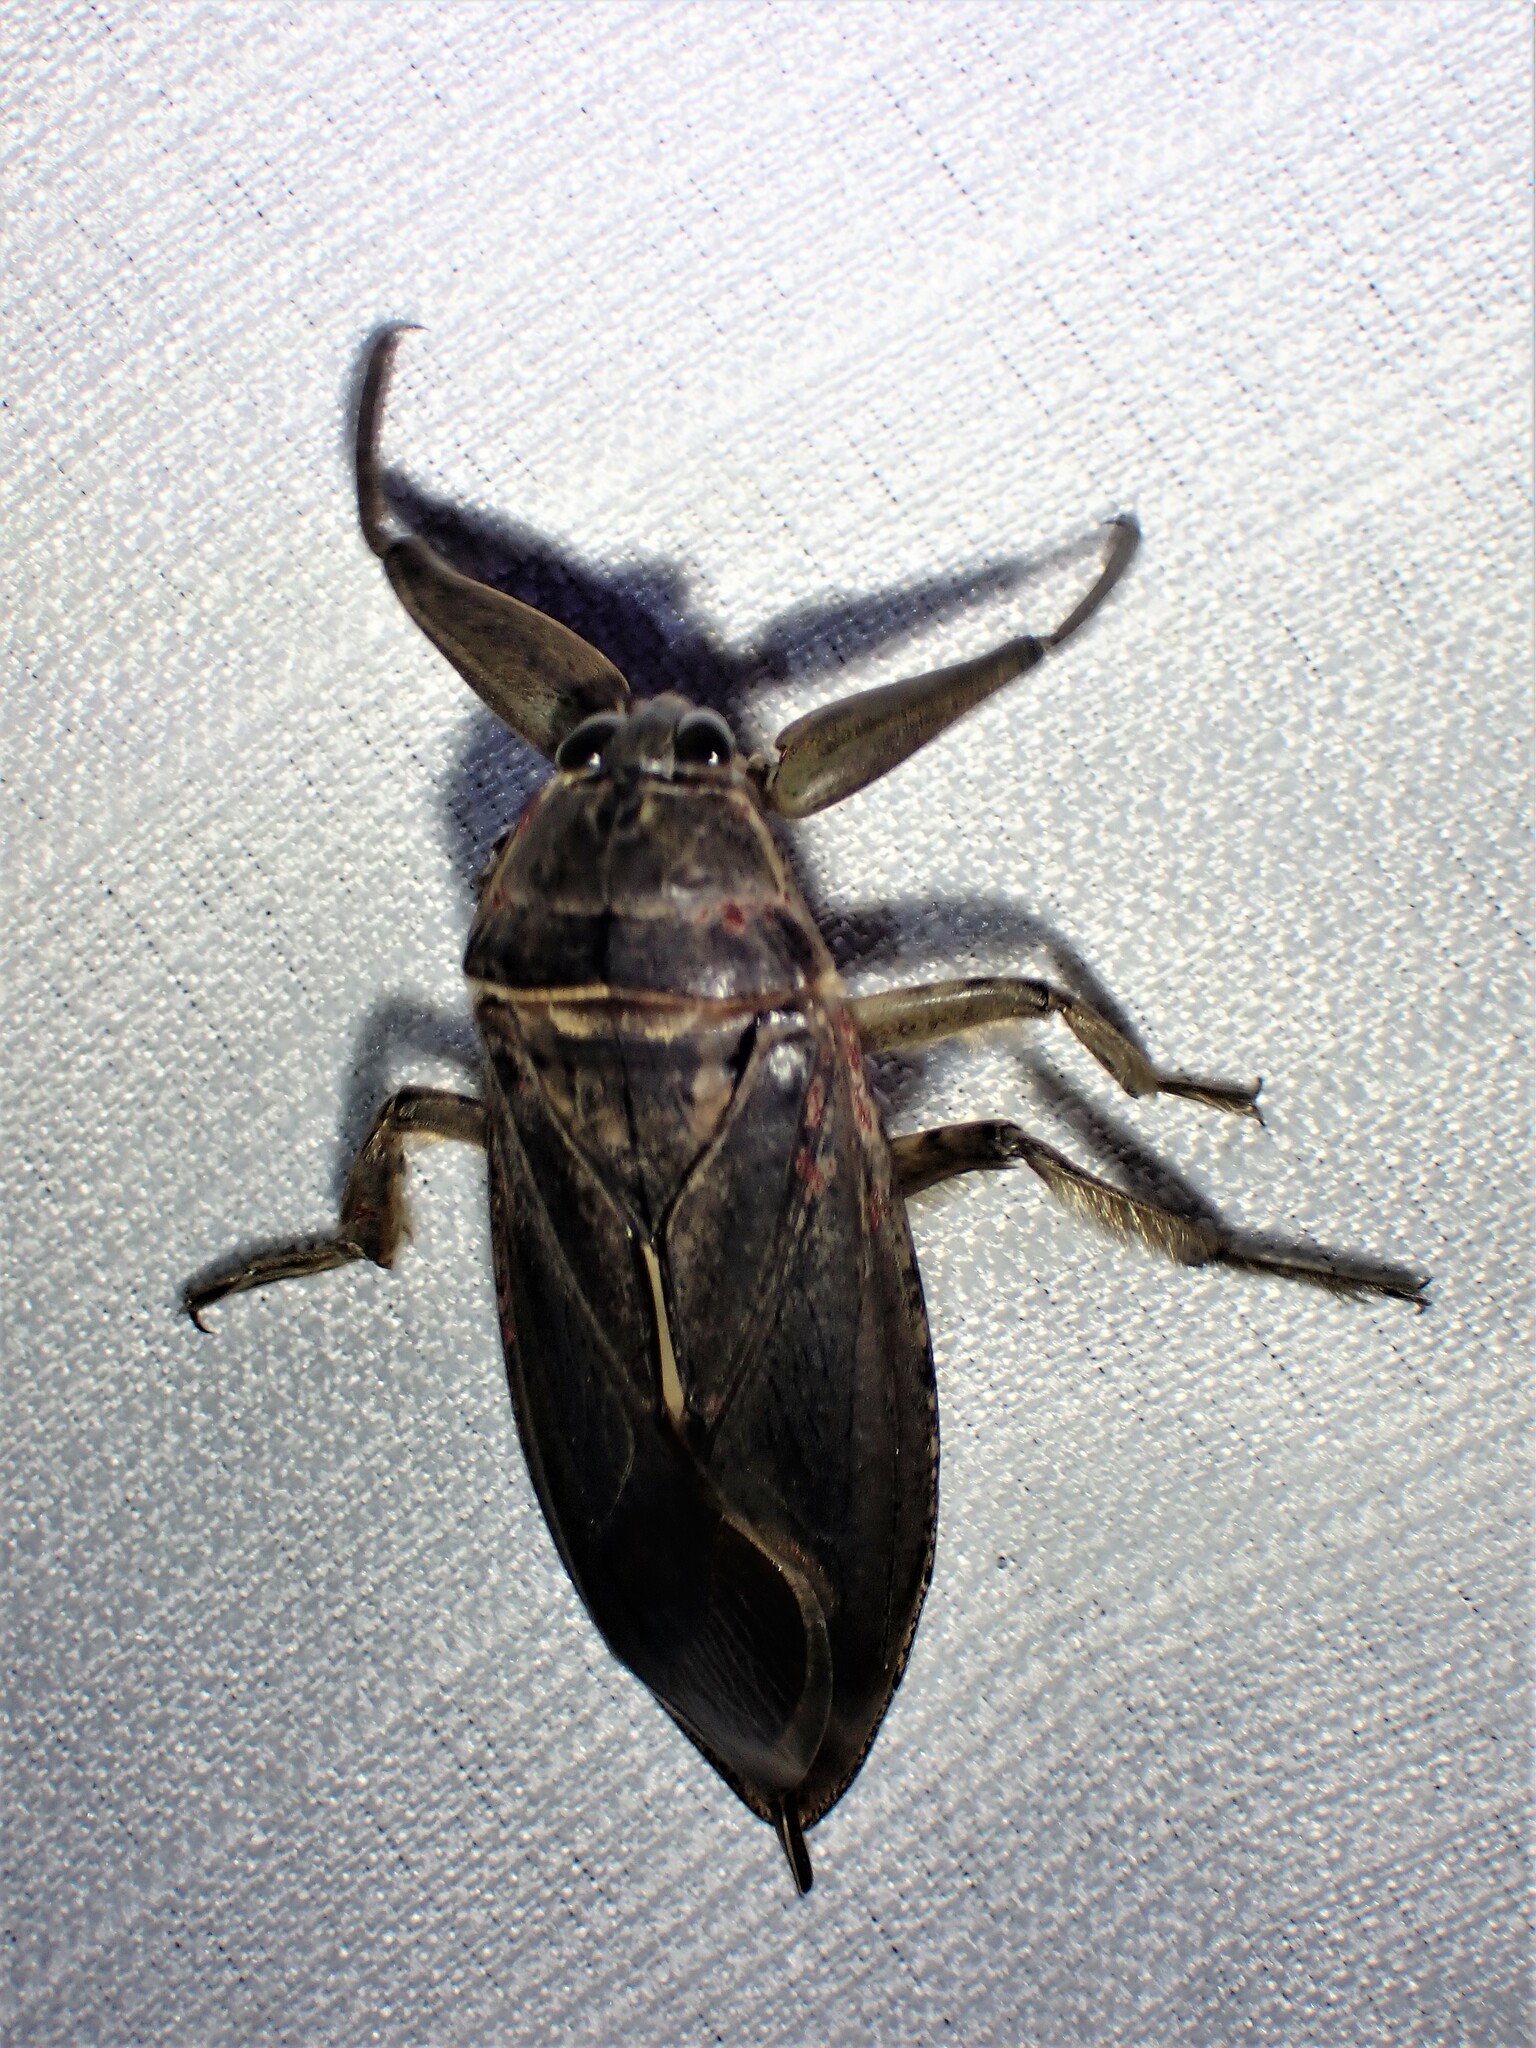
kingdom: Animalia
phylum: Arthropoda
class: Insecta
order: Hemiptera
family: Belostomatidae
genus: Lethocerus
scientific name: Lethocerus americanus
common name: Giant water bug
